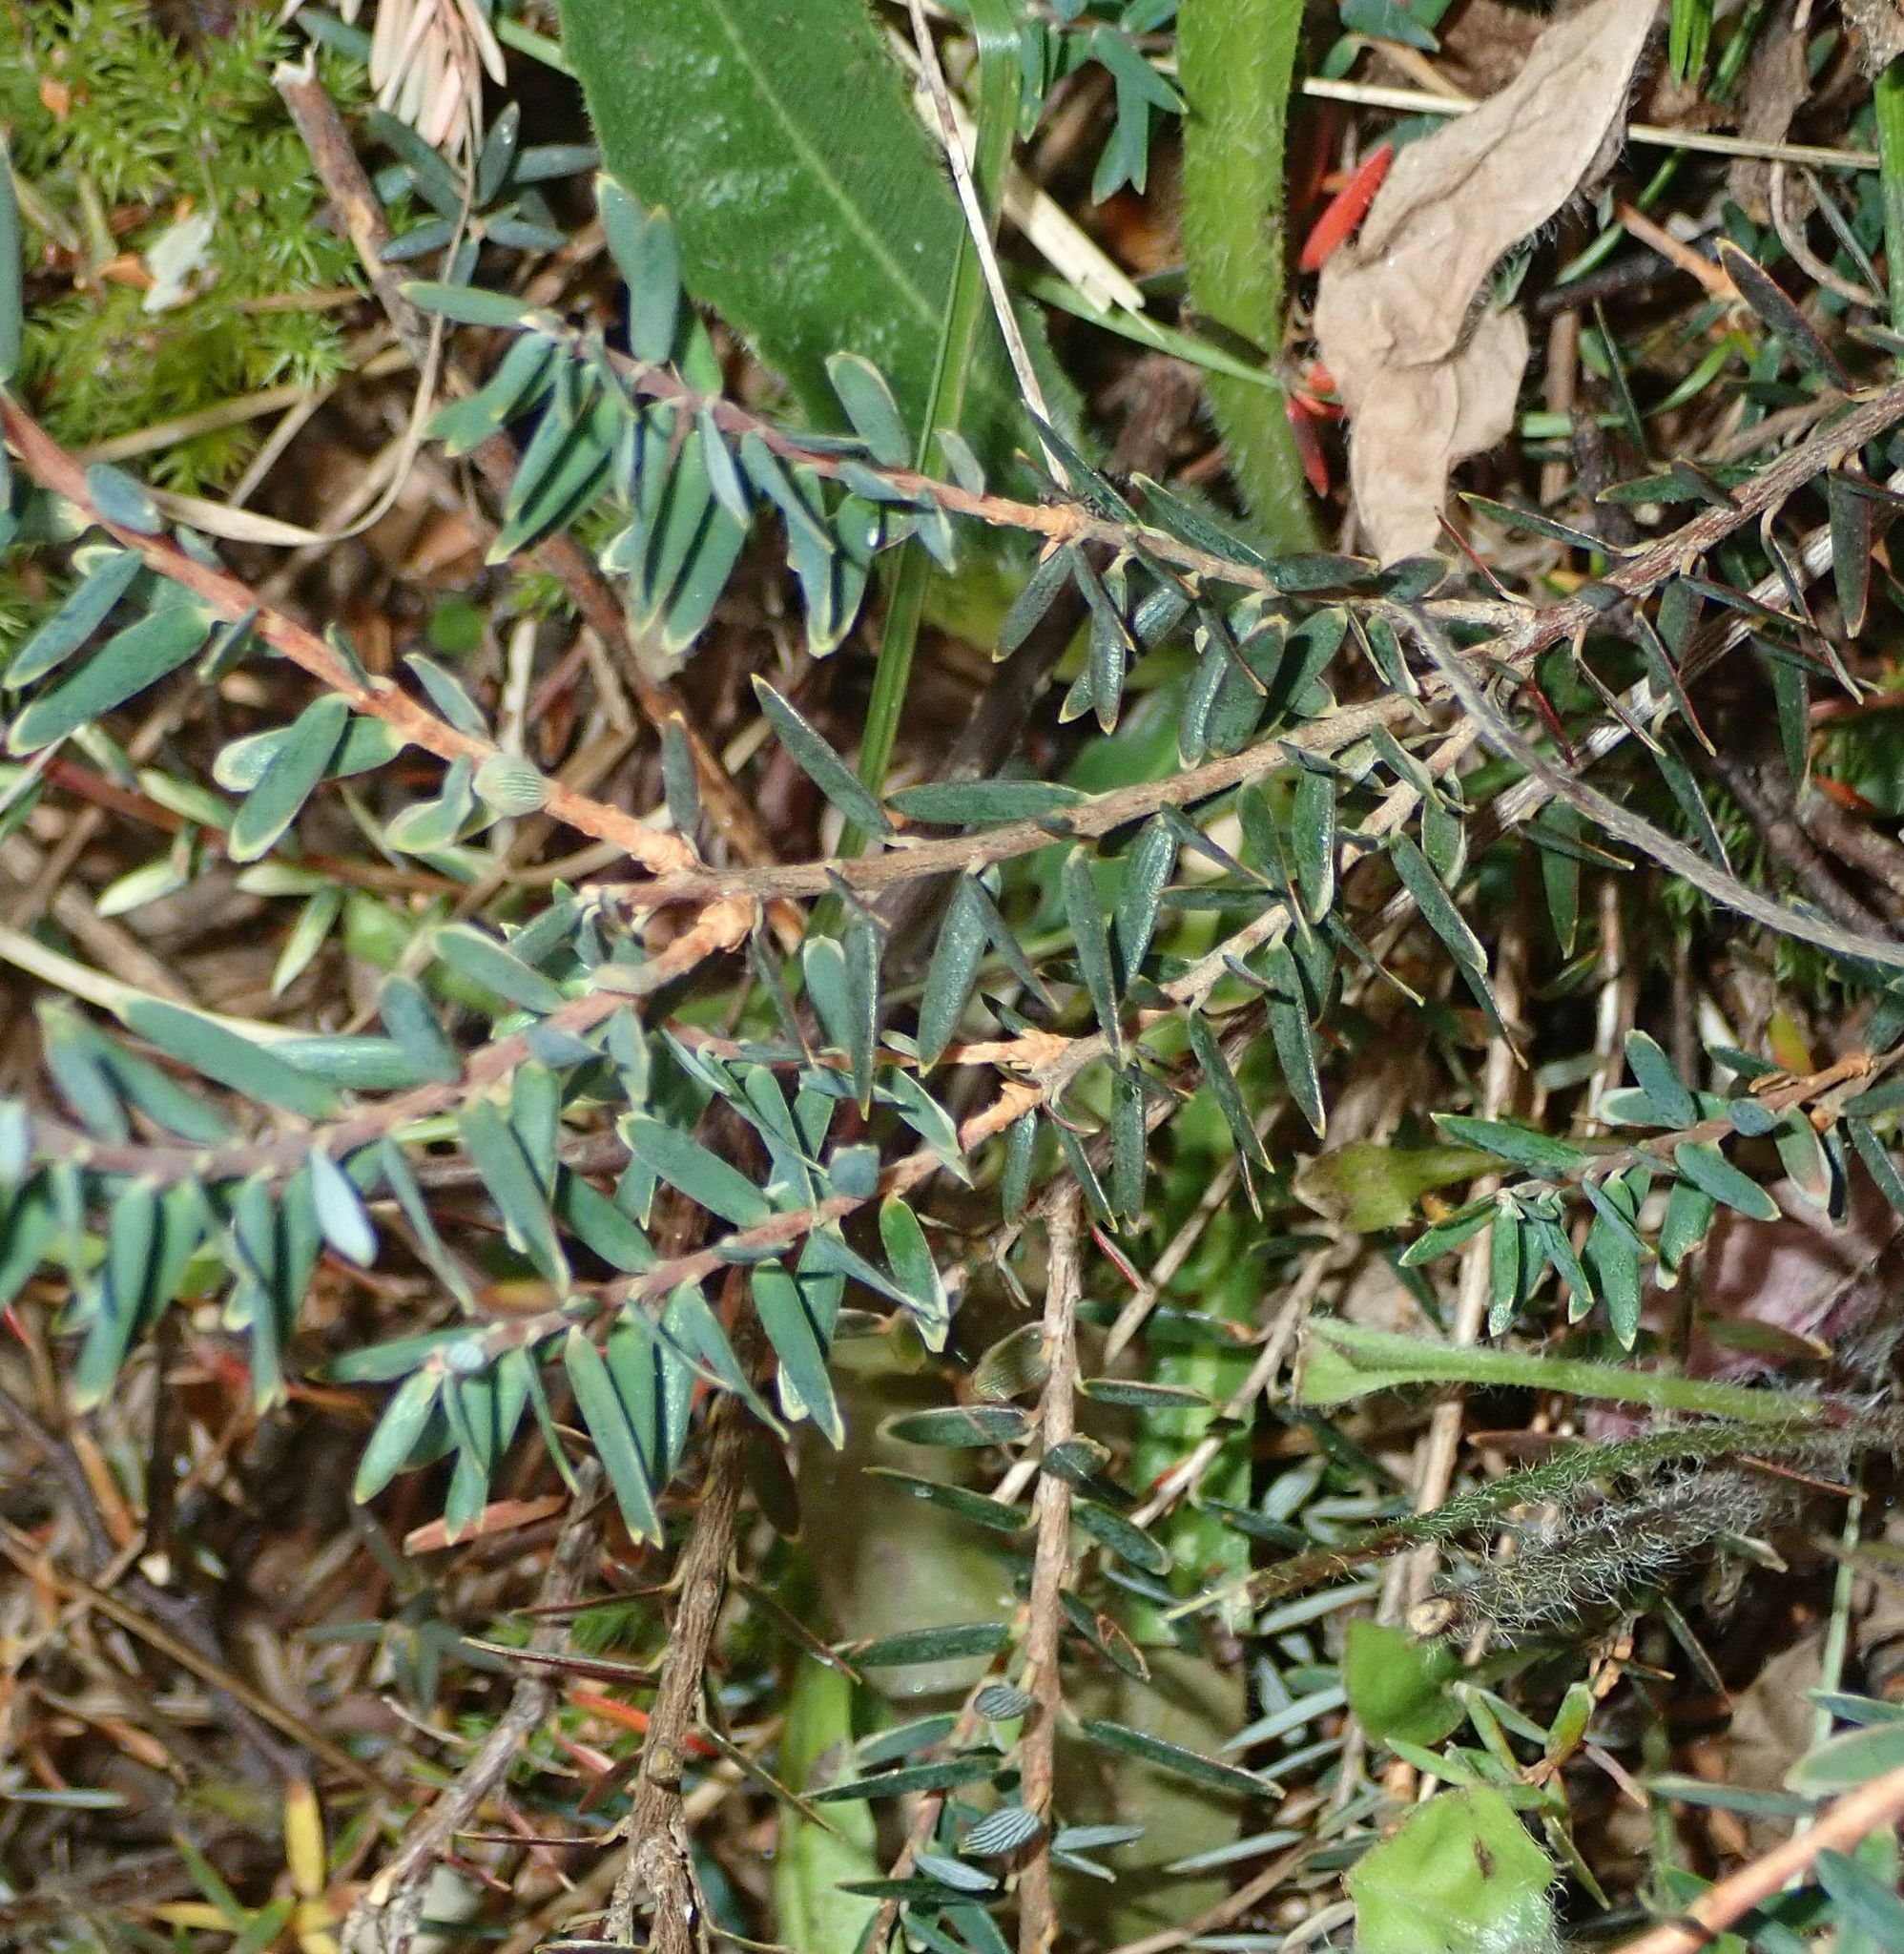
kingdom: Plantae
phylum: Tracheophyta
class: Magnoliopsida
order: Ericales
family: Ericaceae
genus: Acrothamnus
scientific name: Acrothamnus colensoi
